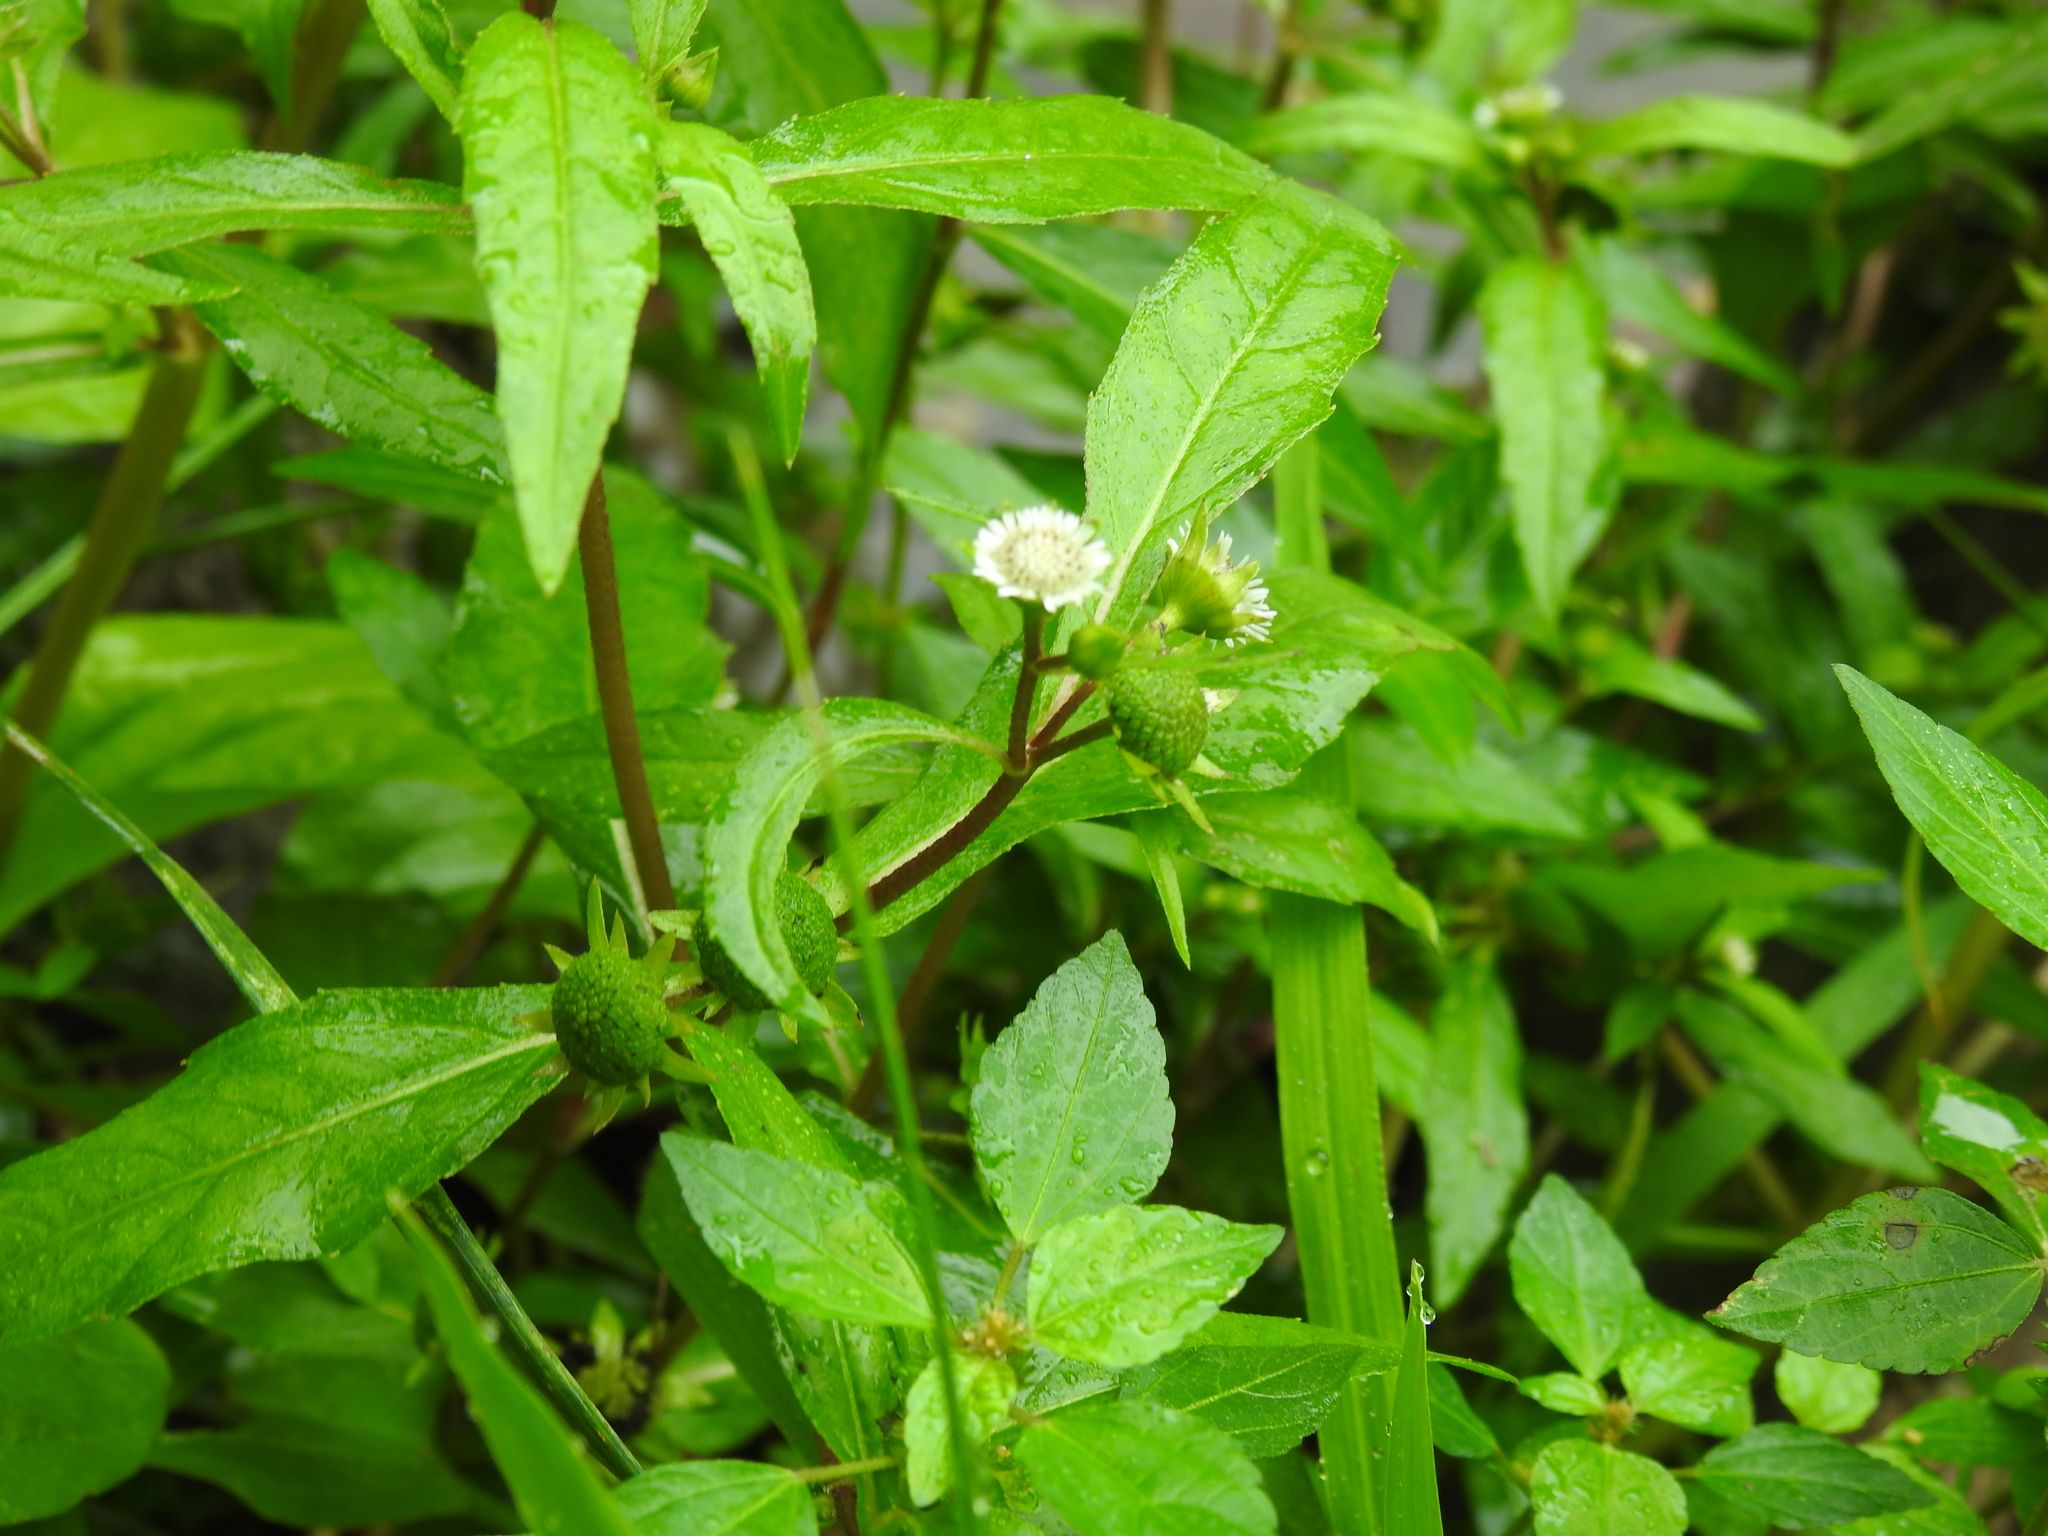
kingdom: Plantae
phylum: Tracheophyta
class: Magnoliopsida
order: Asterales
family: Asteraceae
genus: Eclipta
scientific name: Eclipta prostrata
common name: False daisy
